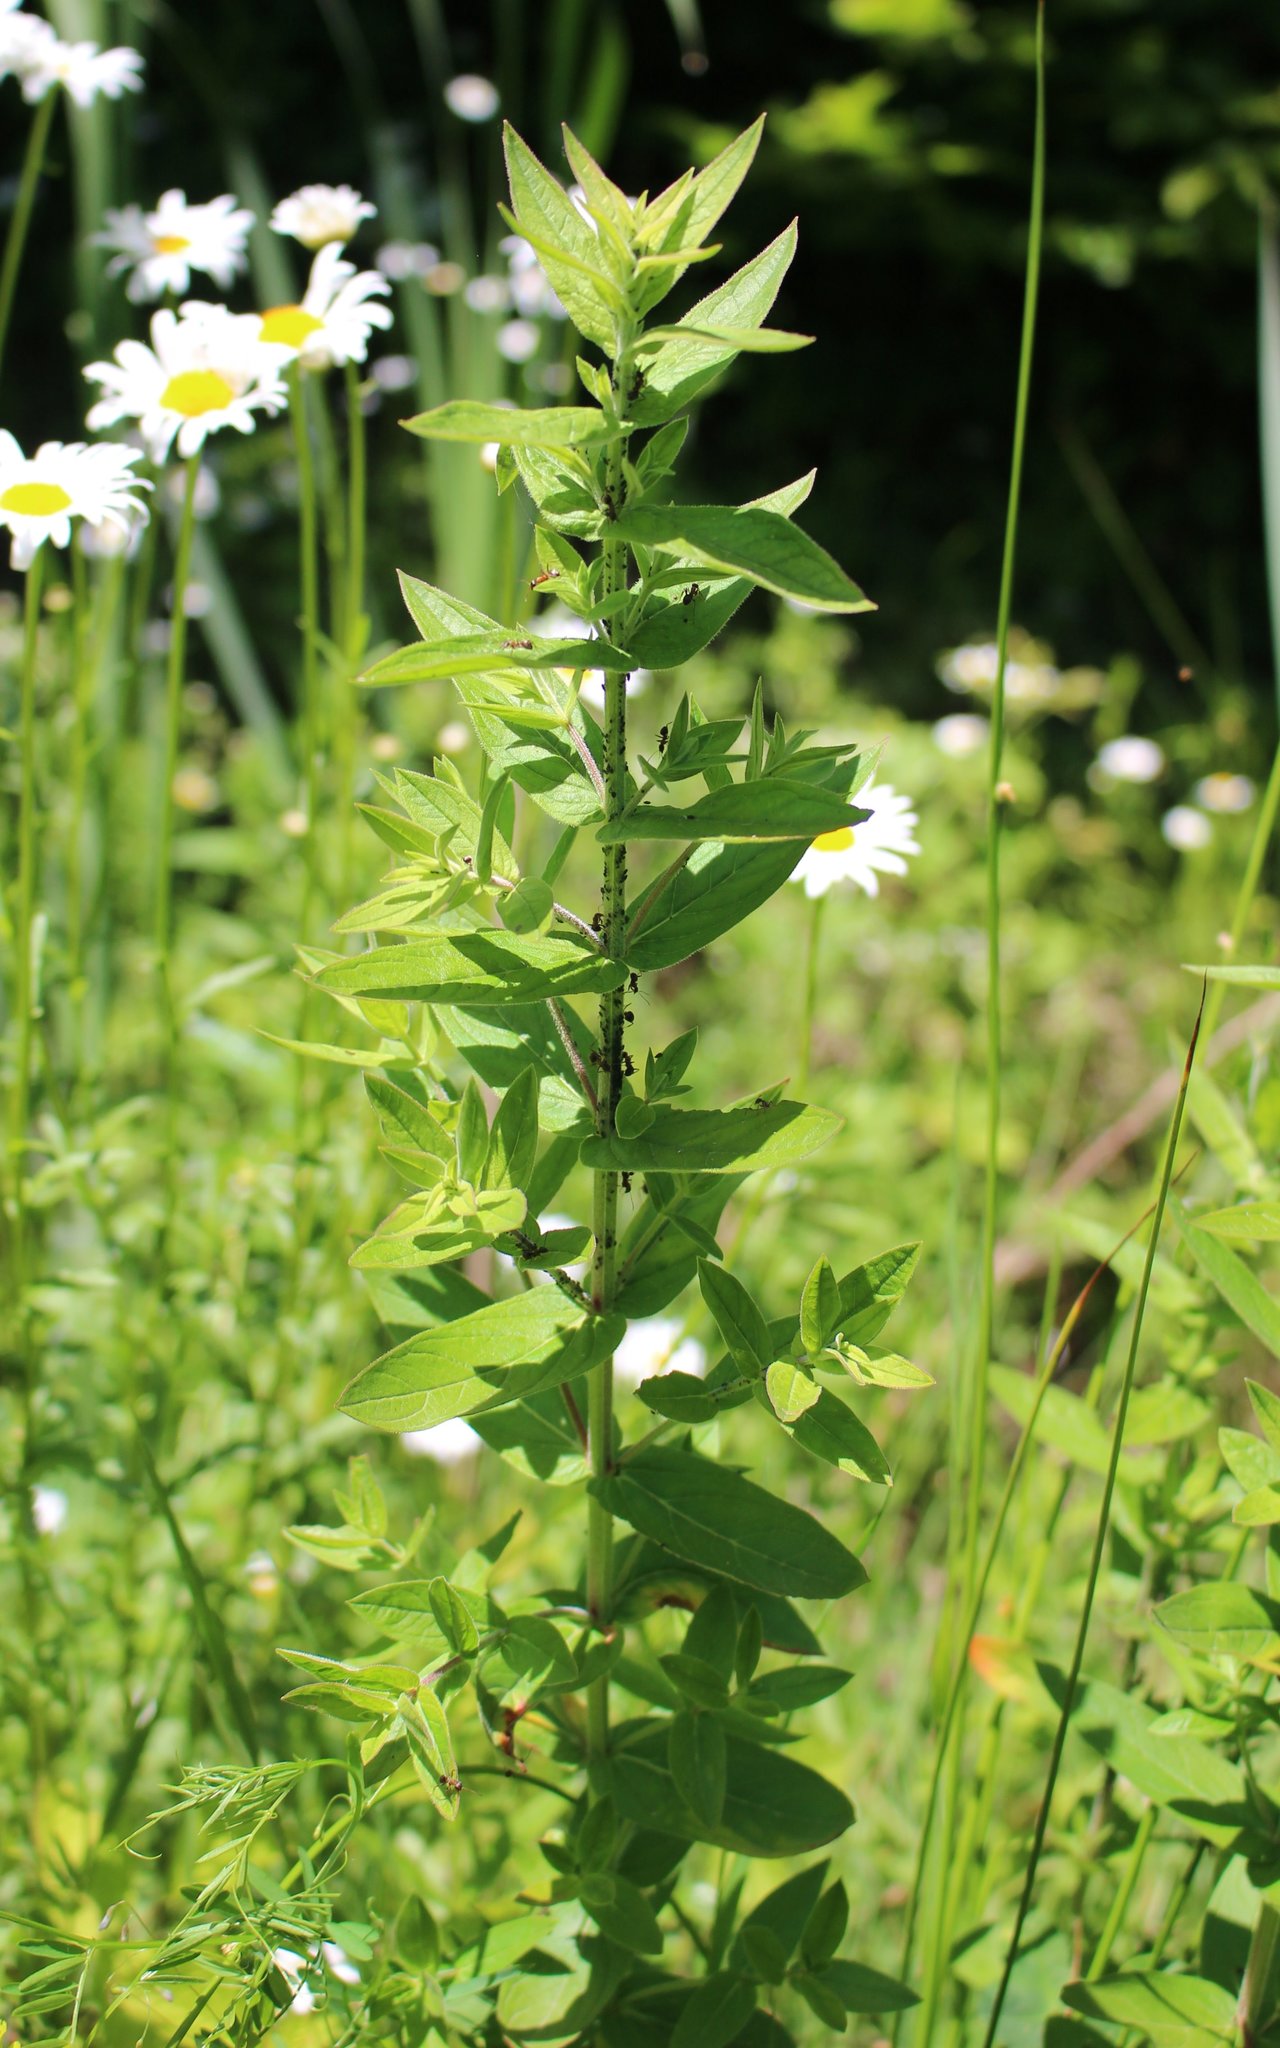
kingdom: Plantae
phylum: Tracheophyta
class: Magnoliopsida
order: Myrtales
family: Lythraceae
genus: Lythrum
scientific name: Lythrum salicaria
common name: Purple loosestrife
